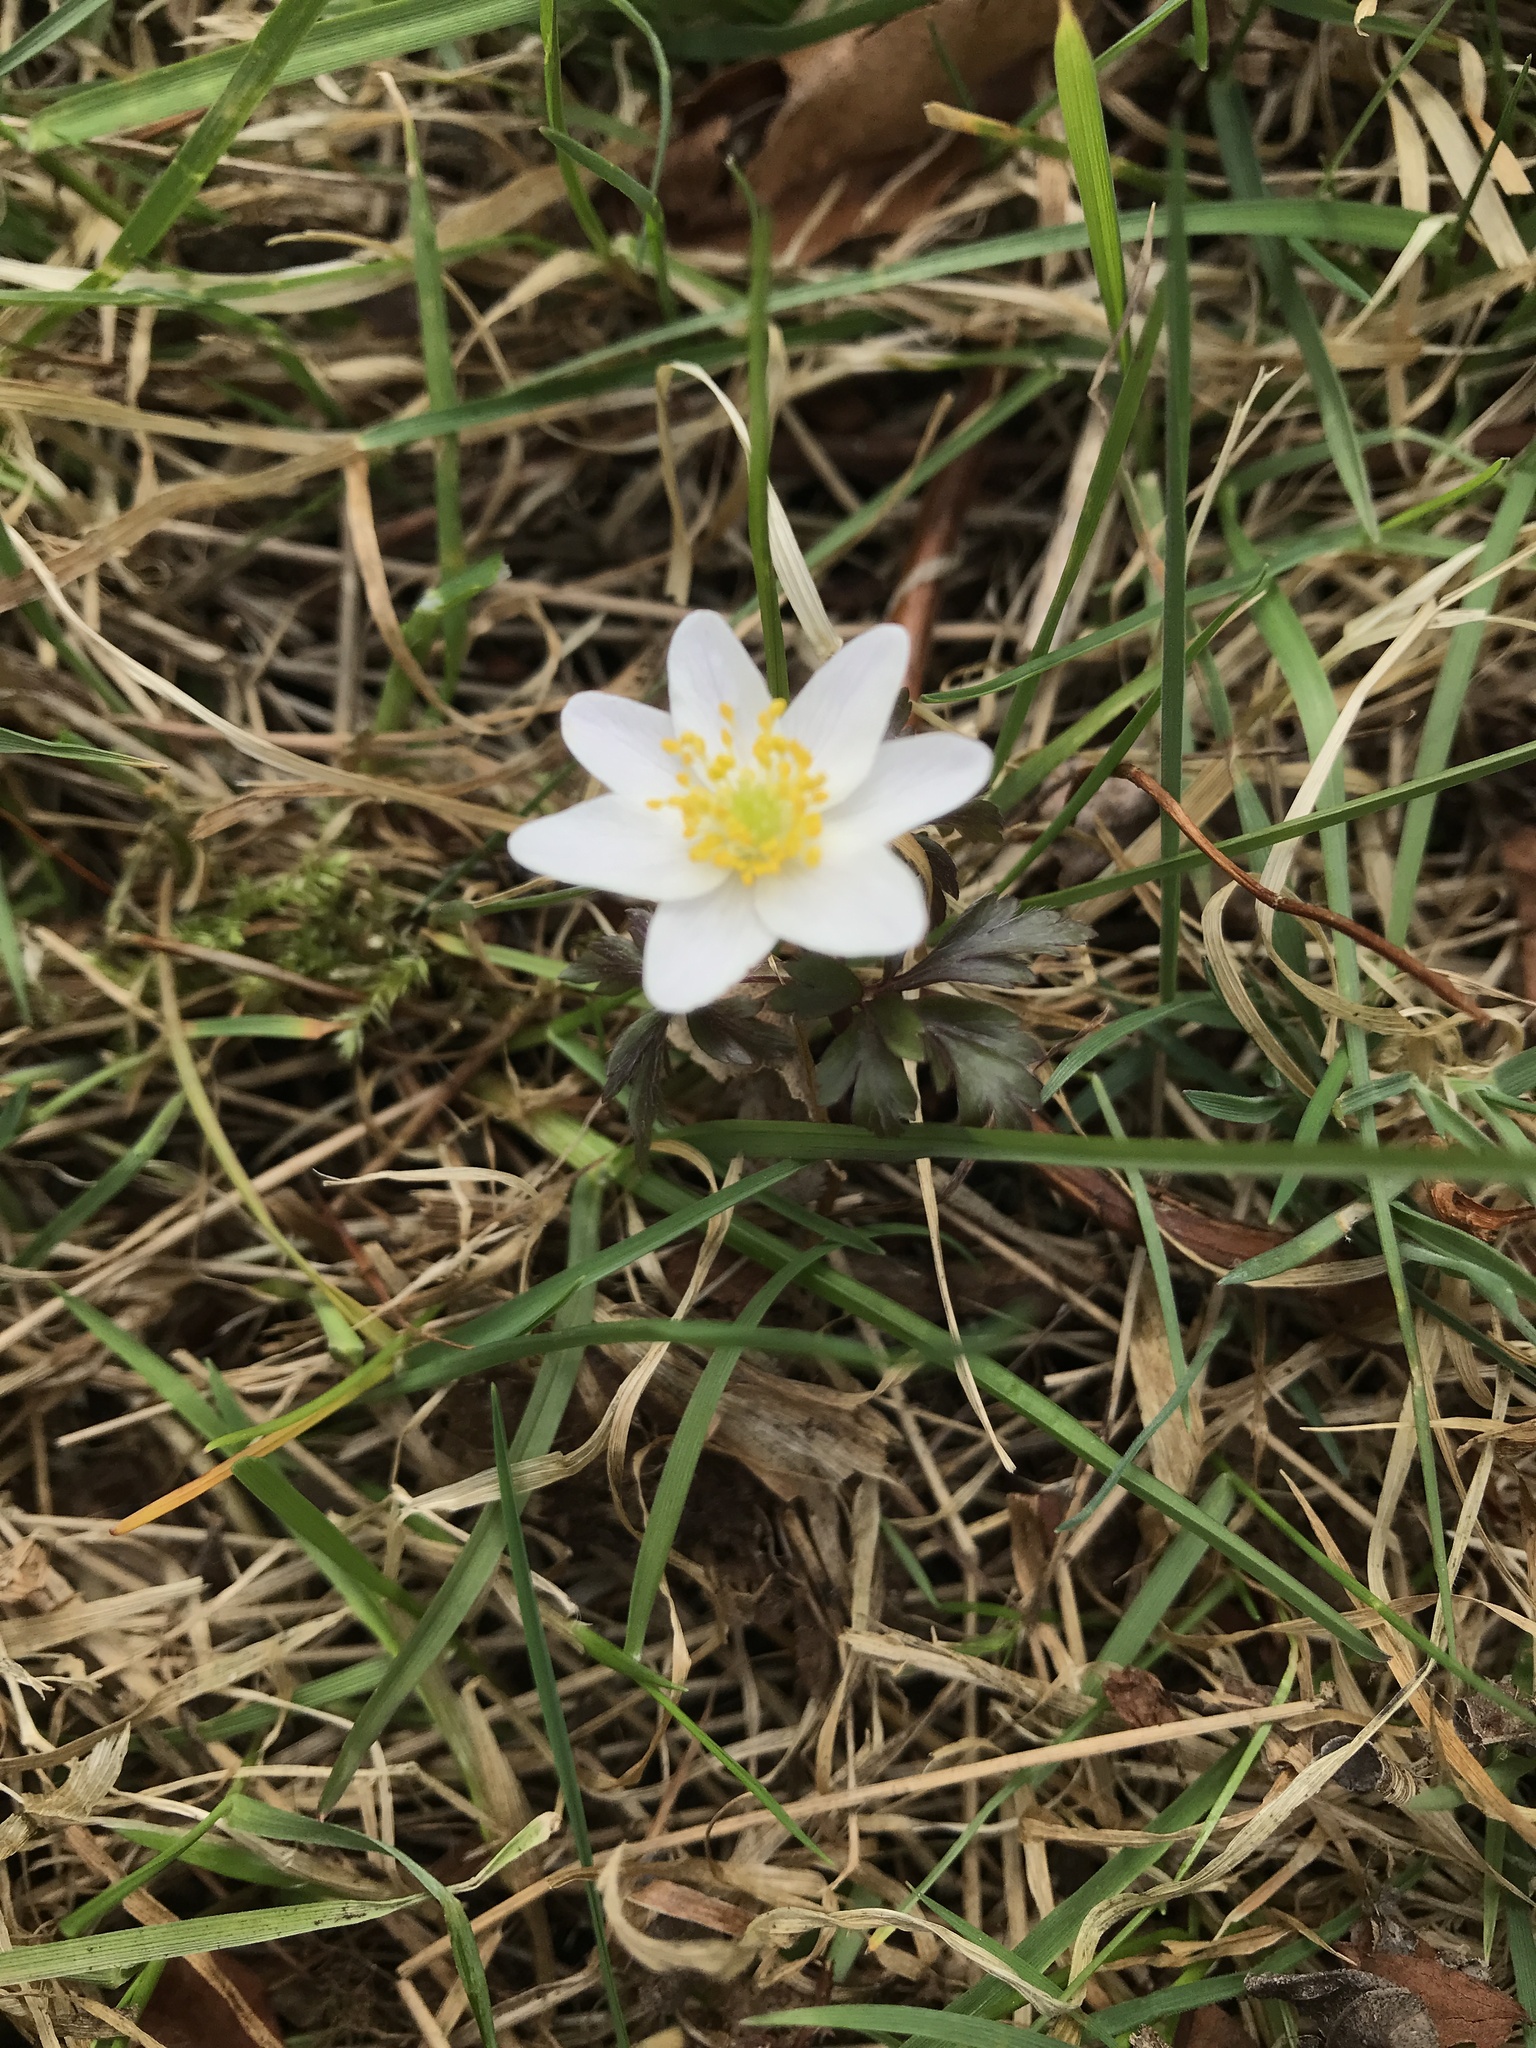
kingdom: Plantae
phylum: Tracheophyta
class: Magnoliopsida
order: Ranunculales
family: Ranunculaceae
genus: Anemone
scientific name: Anemone nemorosa
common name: Wood anemone
